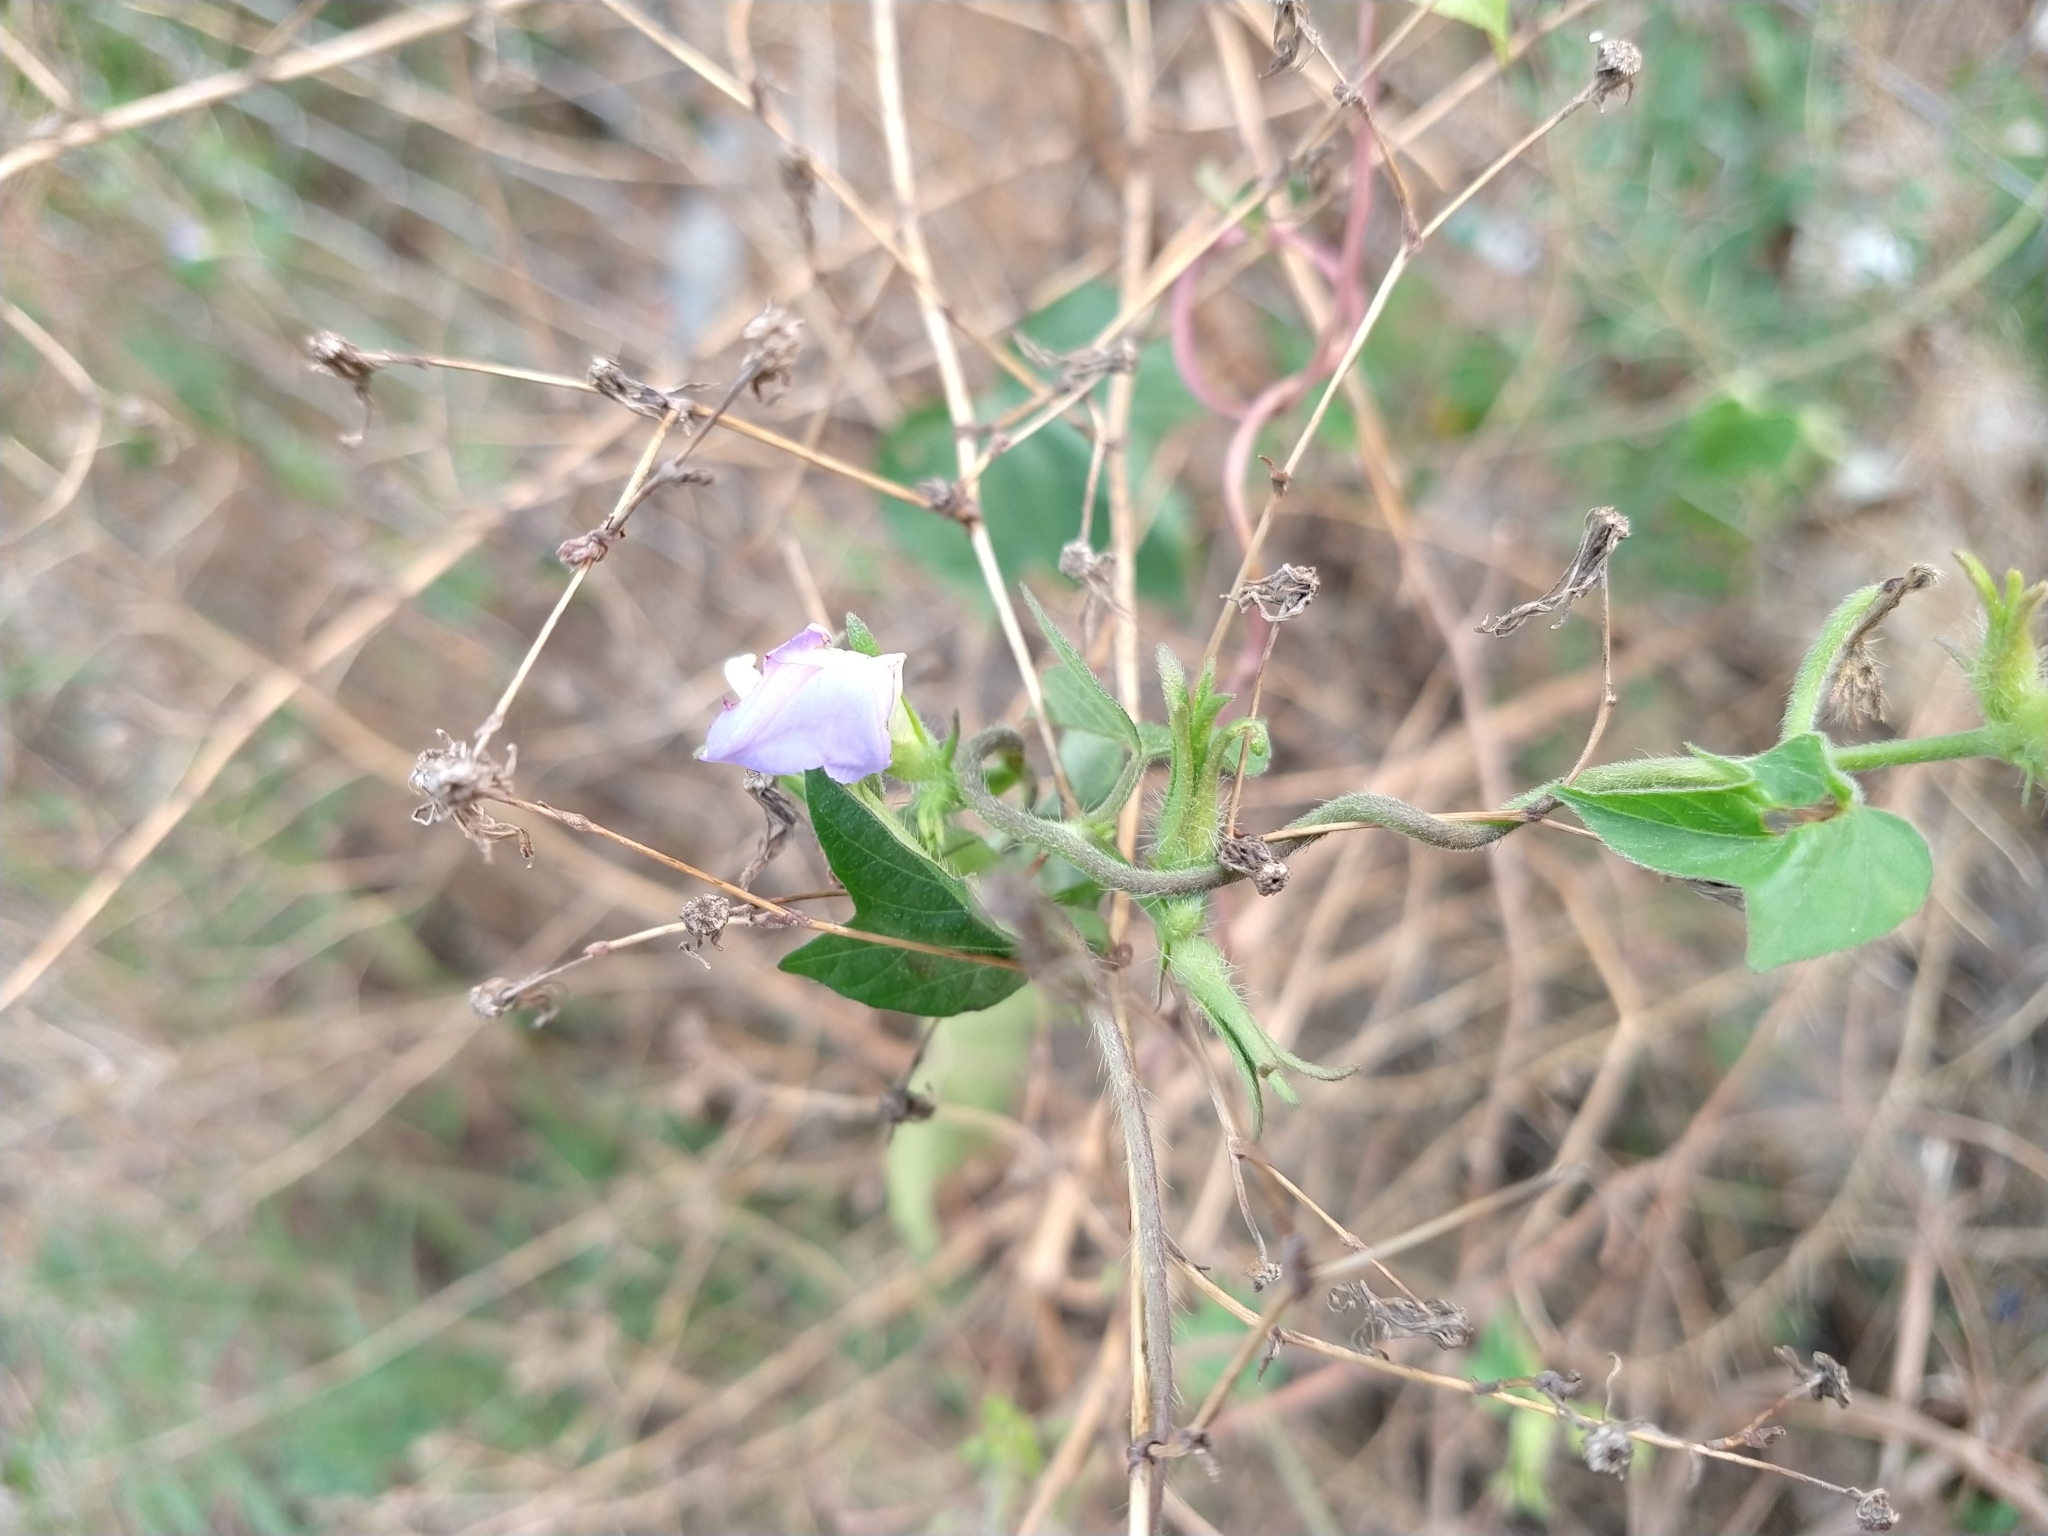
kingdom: Plantae
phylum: Tracheophyta
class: Magnoliopsida
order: Solanales
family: Convolvulaceae
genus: Ipomoea
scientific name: Ipomoea hederacea
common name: Ivy-leaved morning-glory
